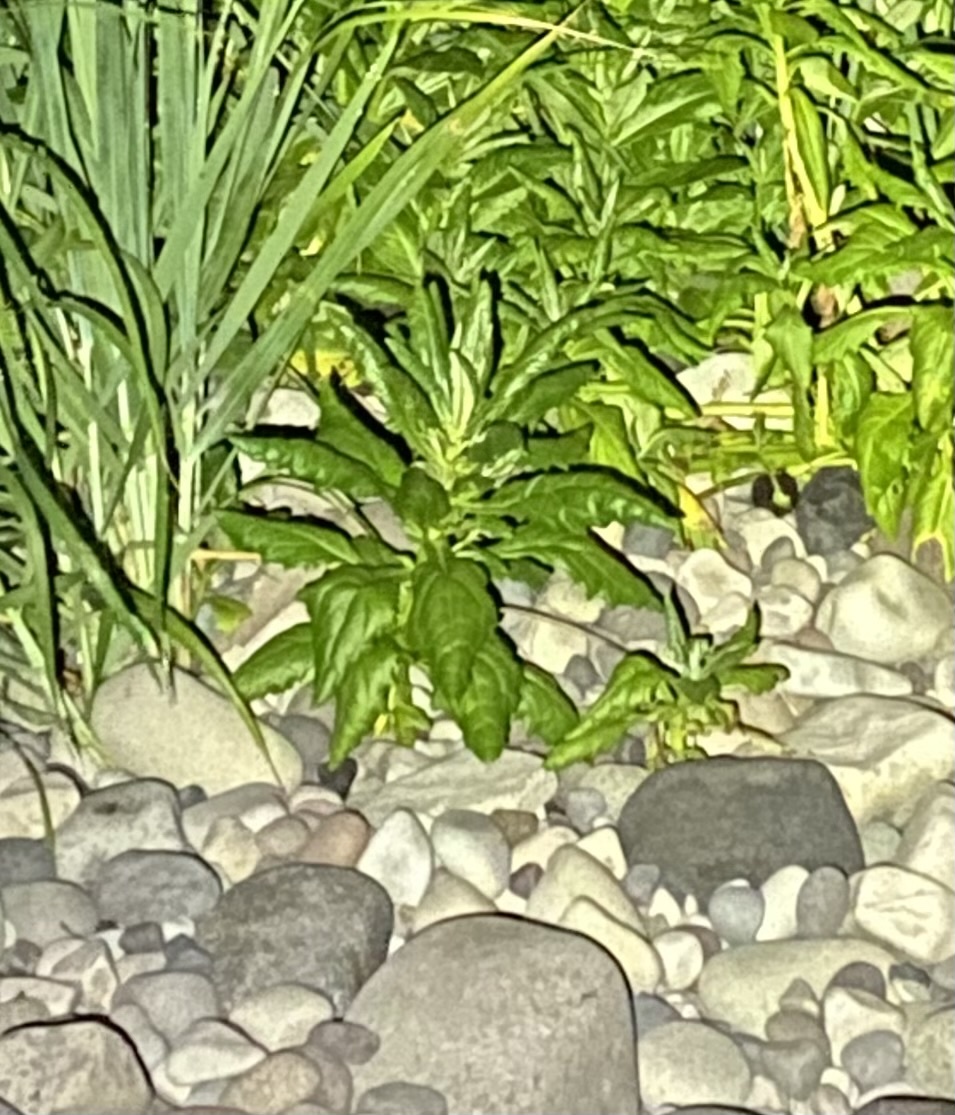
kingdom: Plantae
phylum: Tracheophyta
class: Magnoliopsida
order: Asterales
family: Asteraceae
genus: Jacobaea
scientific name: Jacobaea pseudoarnica
